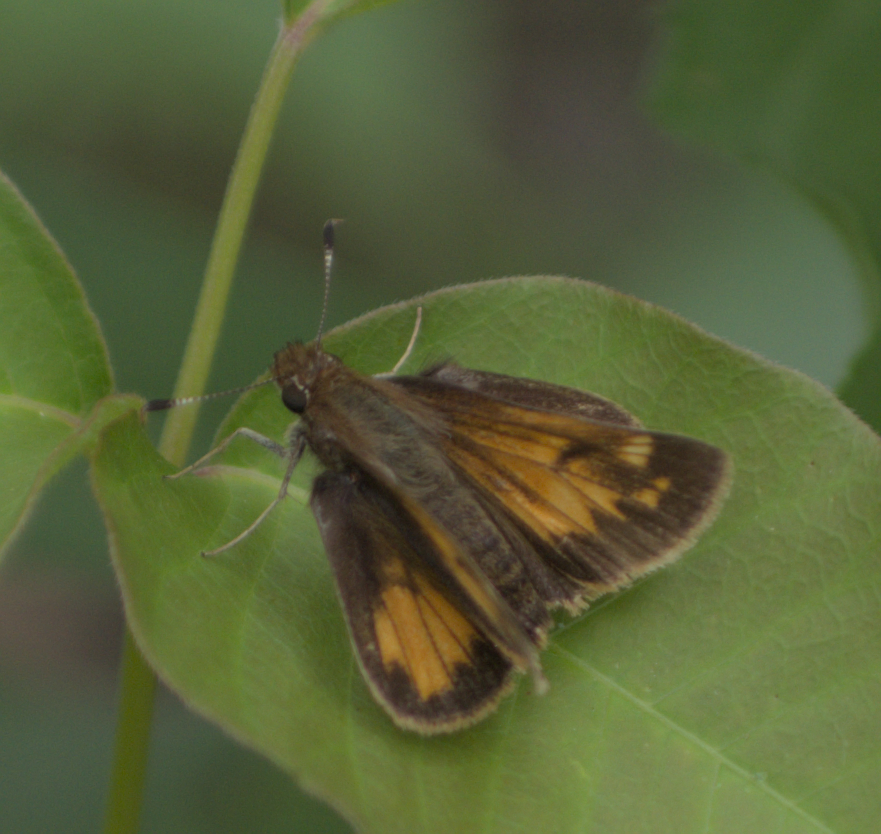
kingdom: Animalia
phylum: Arthropoda
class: Insecta
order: Lepidoptera
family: Hesperiidae
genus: Lon
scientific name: Lon hobomok
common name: Hobomok skipper
